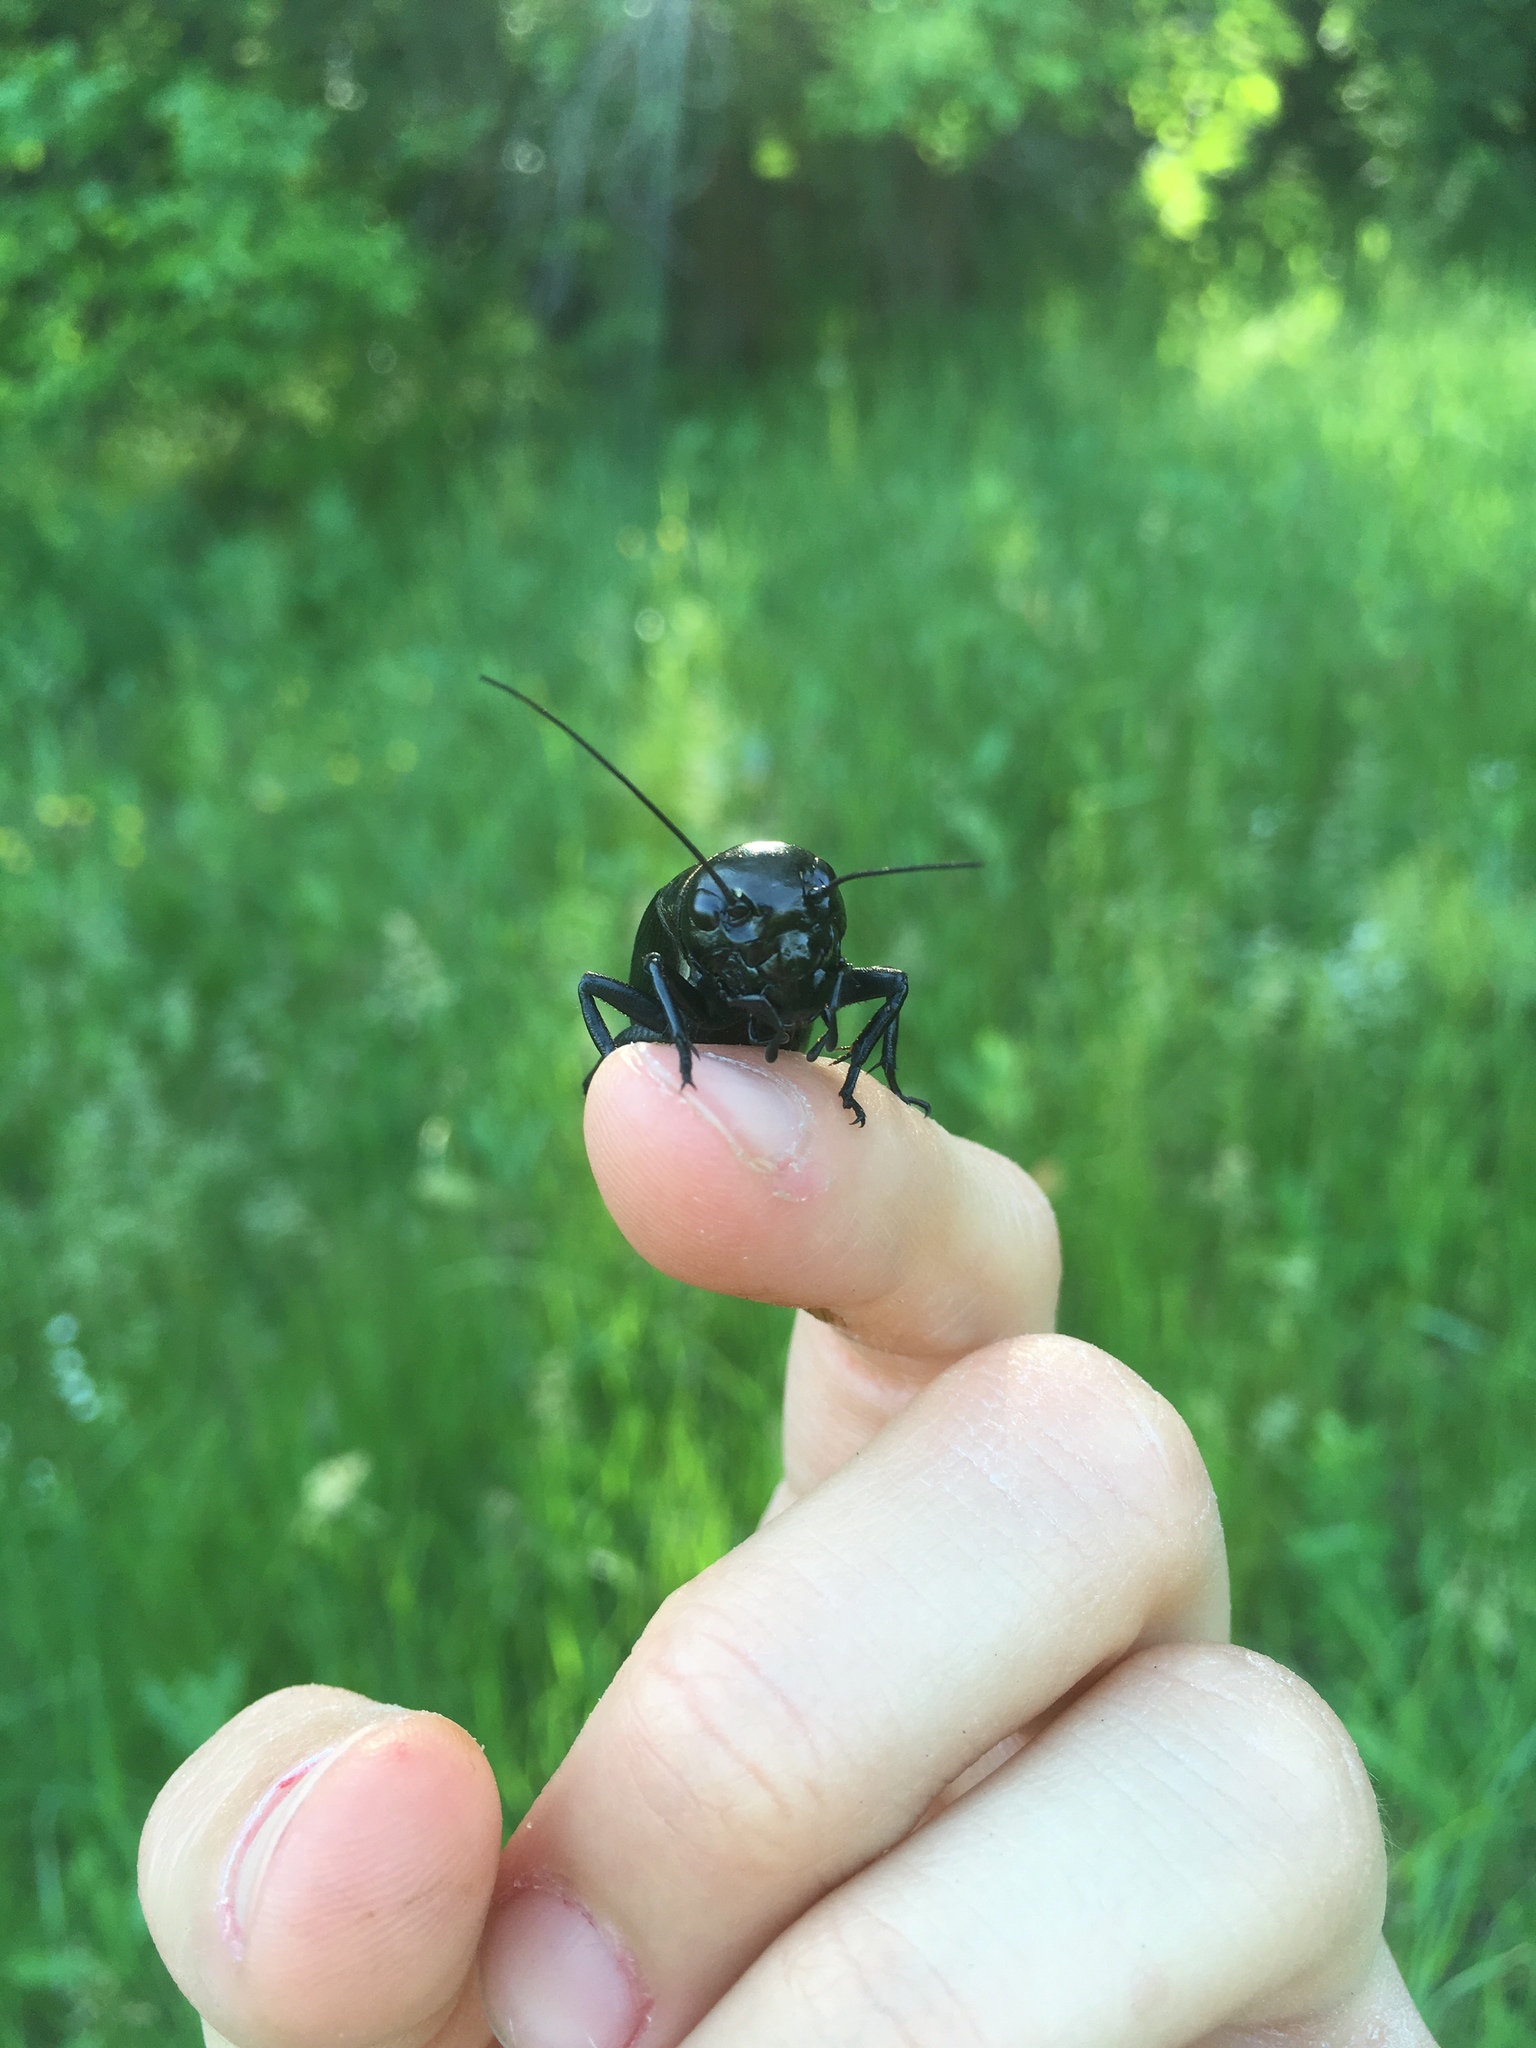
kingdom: Animalia
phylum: Arthropoda
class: Insecta
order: Orthoptera
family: Gryllidae
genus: Gryllus
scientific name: Gryllus campestris
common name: Field cricket
